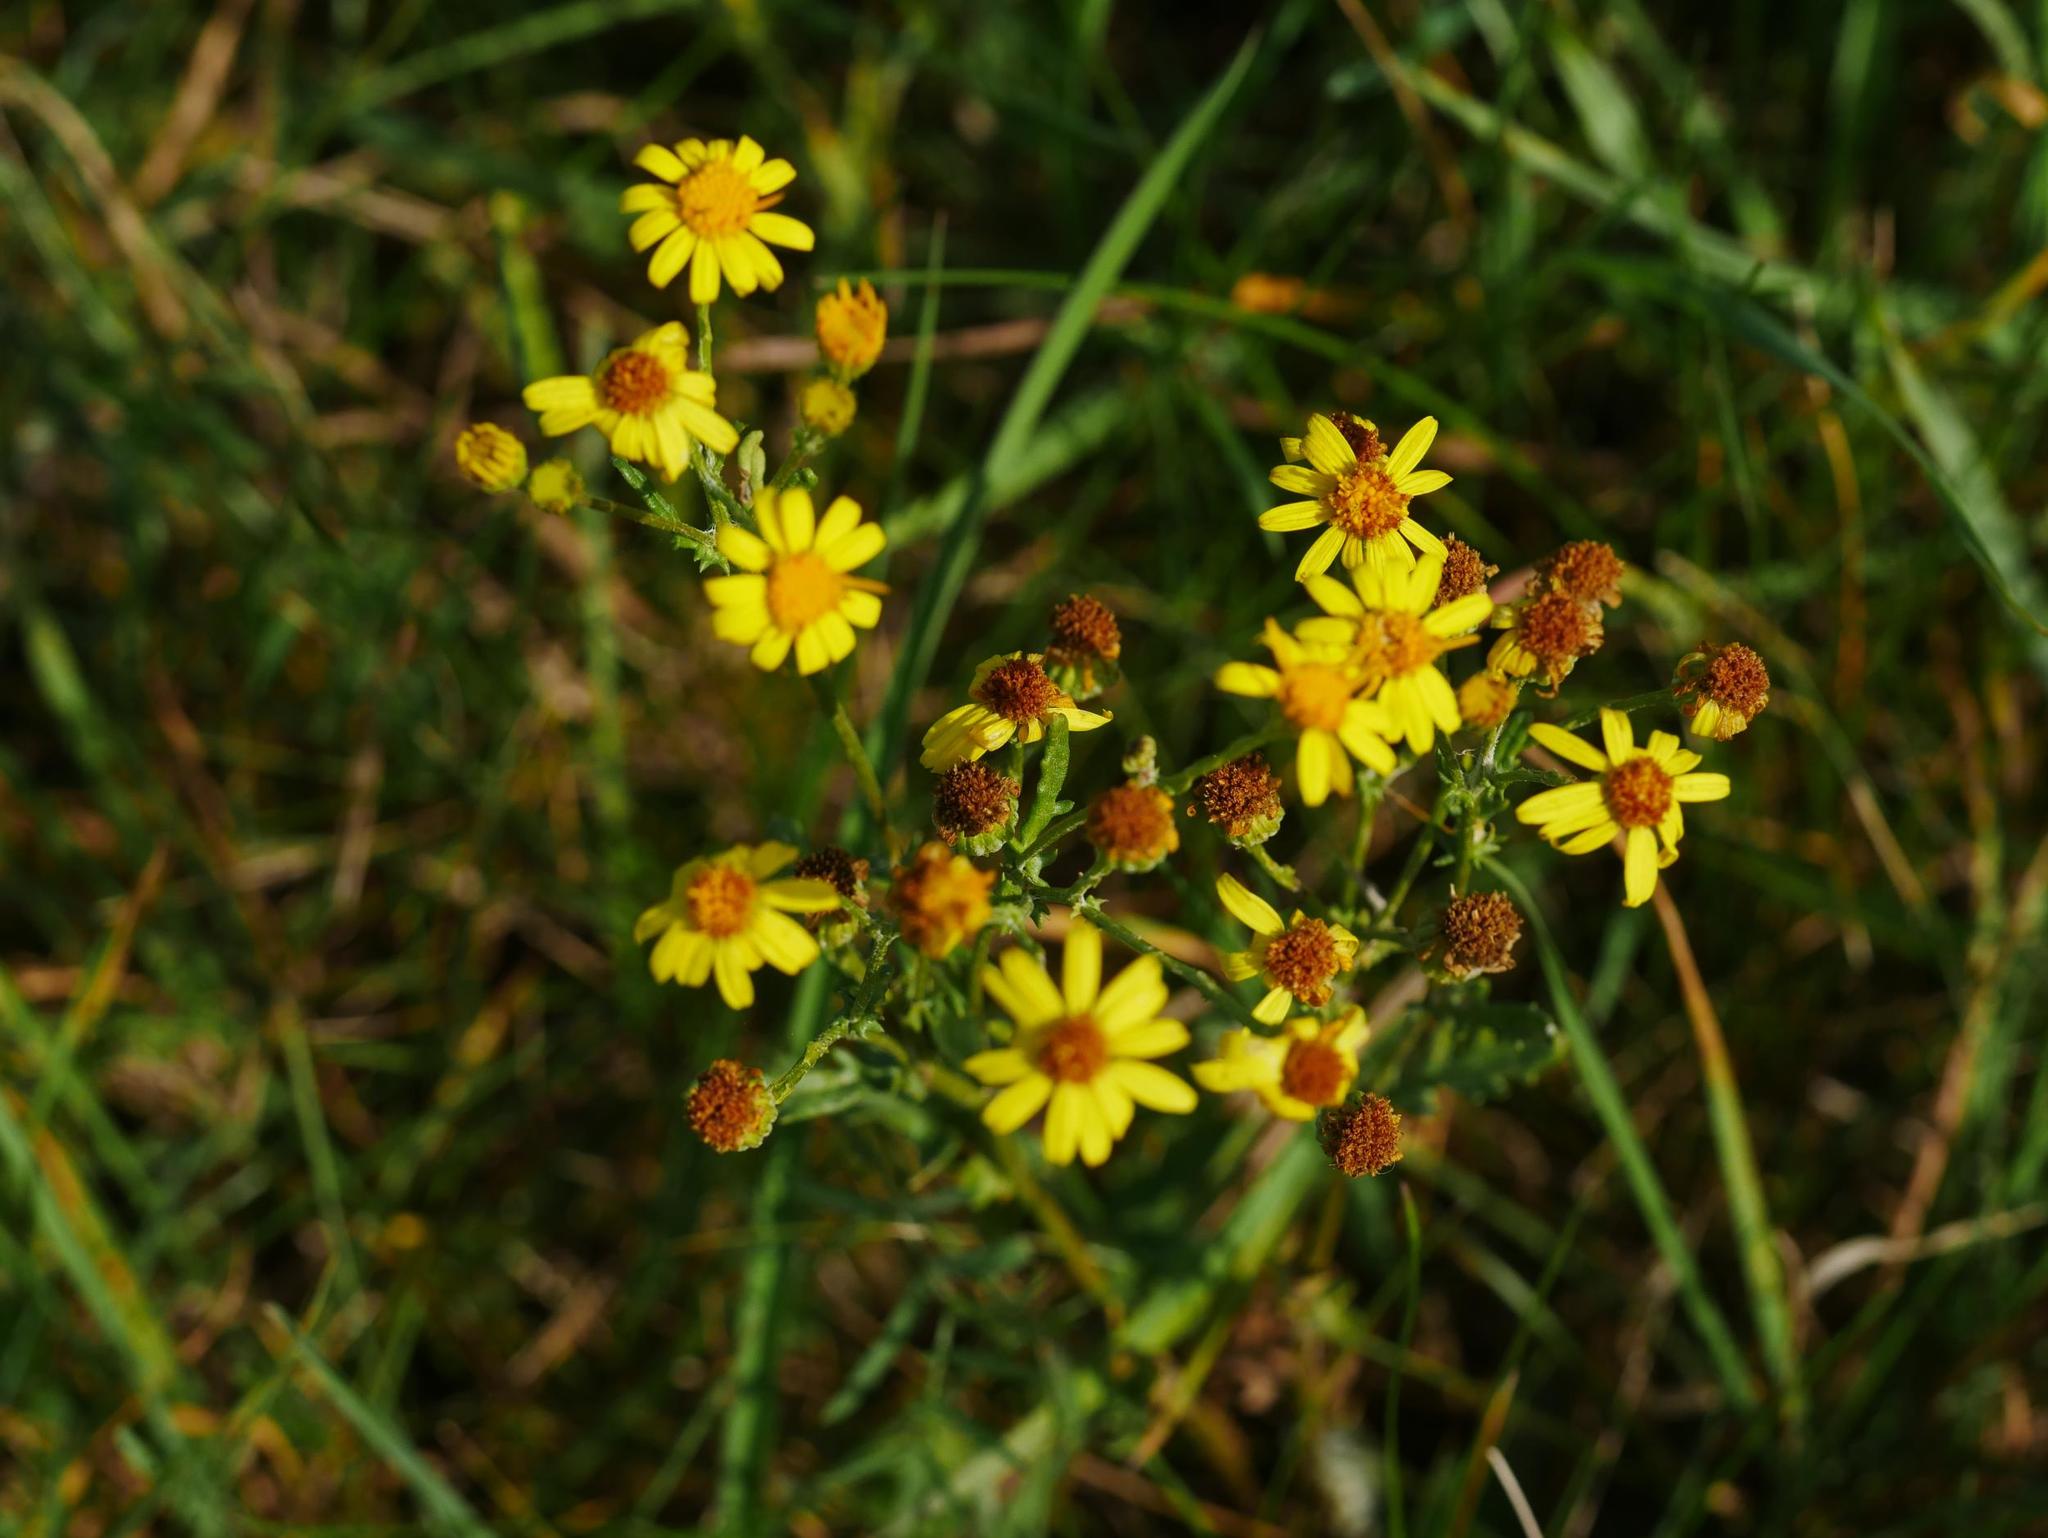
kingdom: Plantae
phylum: Tracheophyta
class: Magnoliopsida
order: Asterales
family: Asteraceae
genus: Jacobaea
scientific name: Jacobaea vulgaris
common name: Stinking willie
